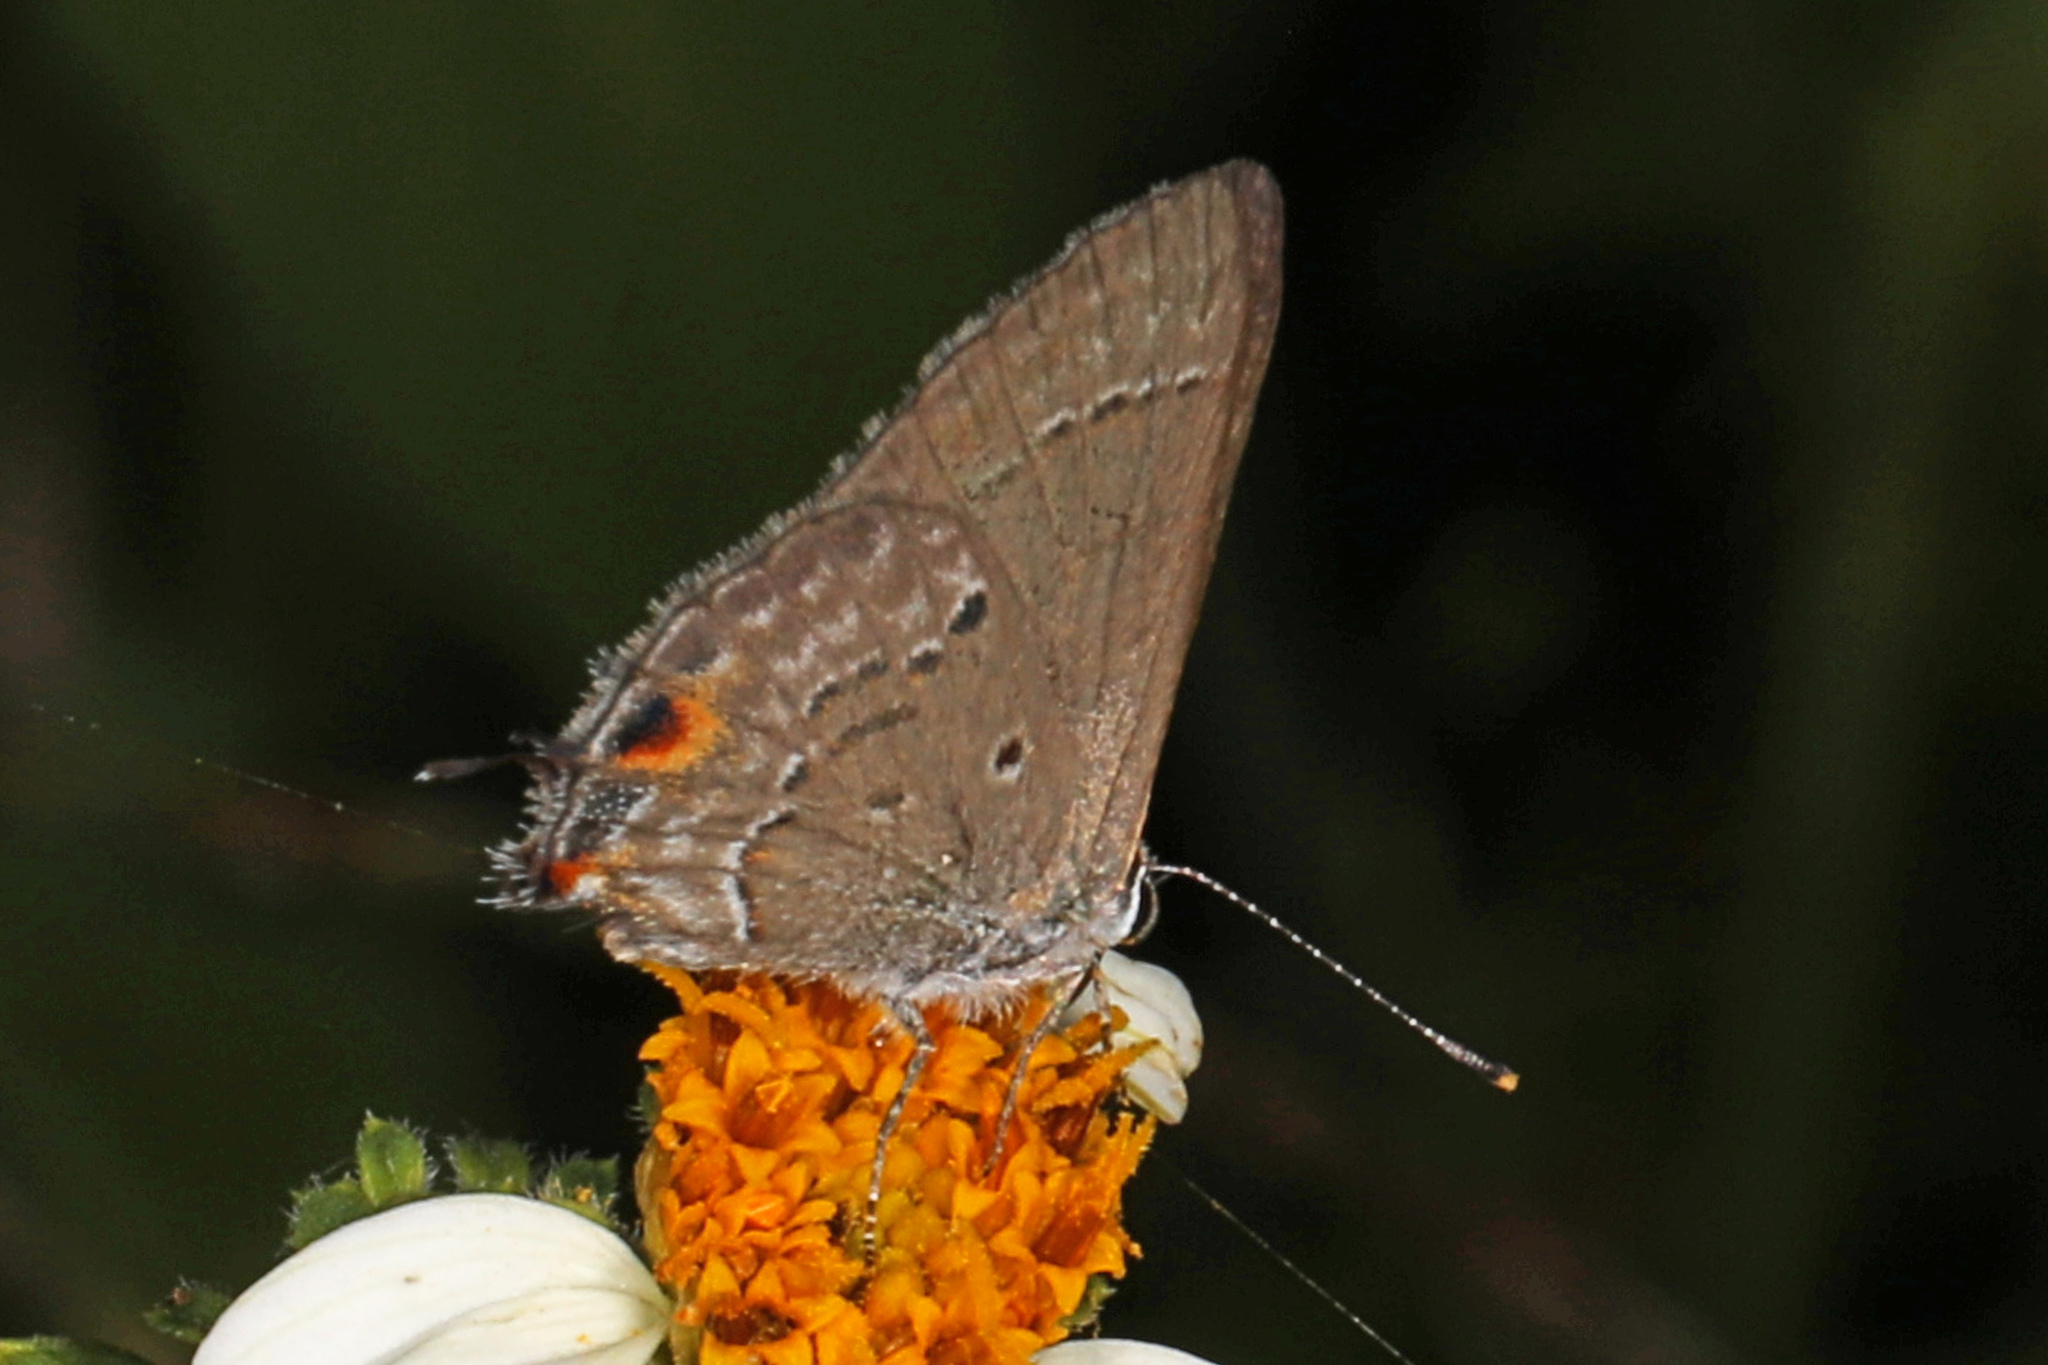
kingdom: Animalia
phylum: Arthropoda
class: Insecta
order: Lepidoptera
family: Lycaenidae
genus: Callicista
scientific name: Callicista columella
